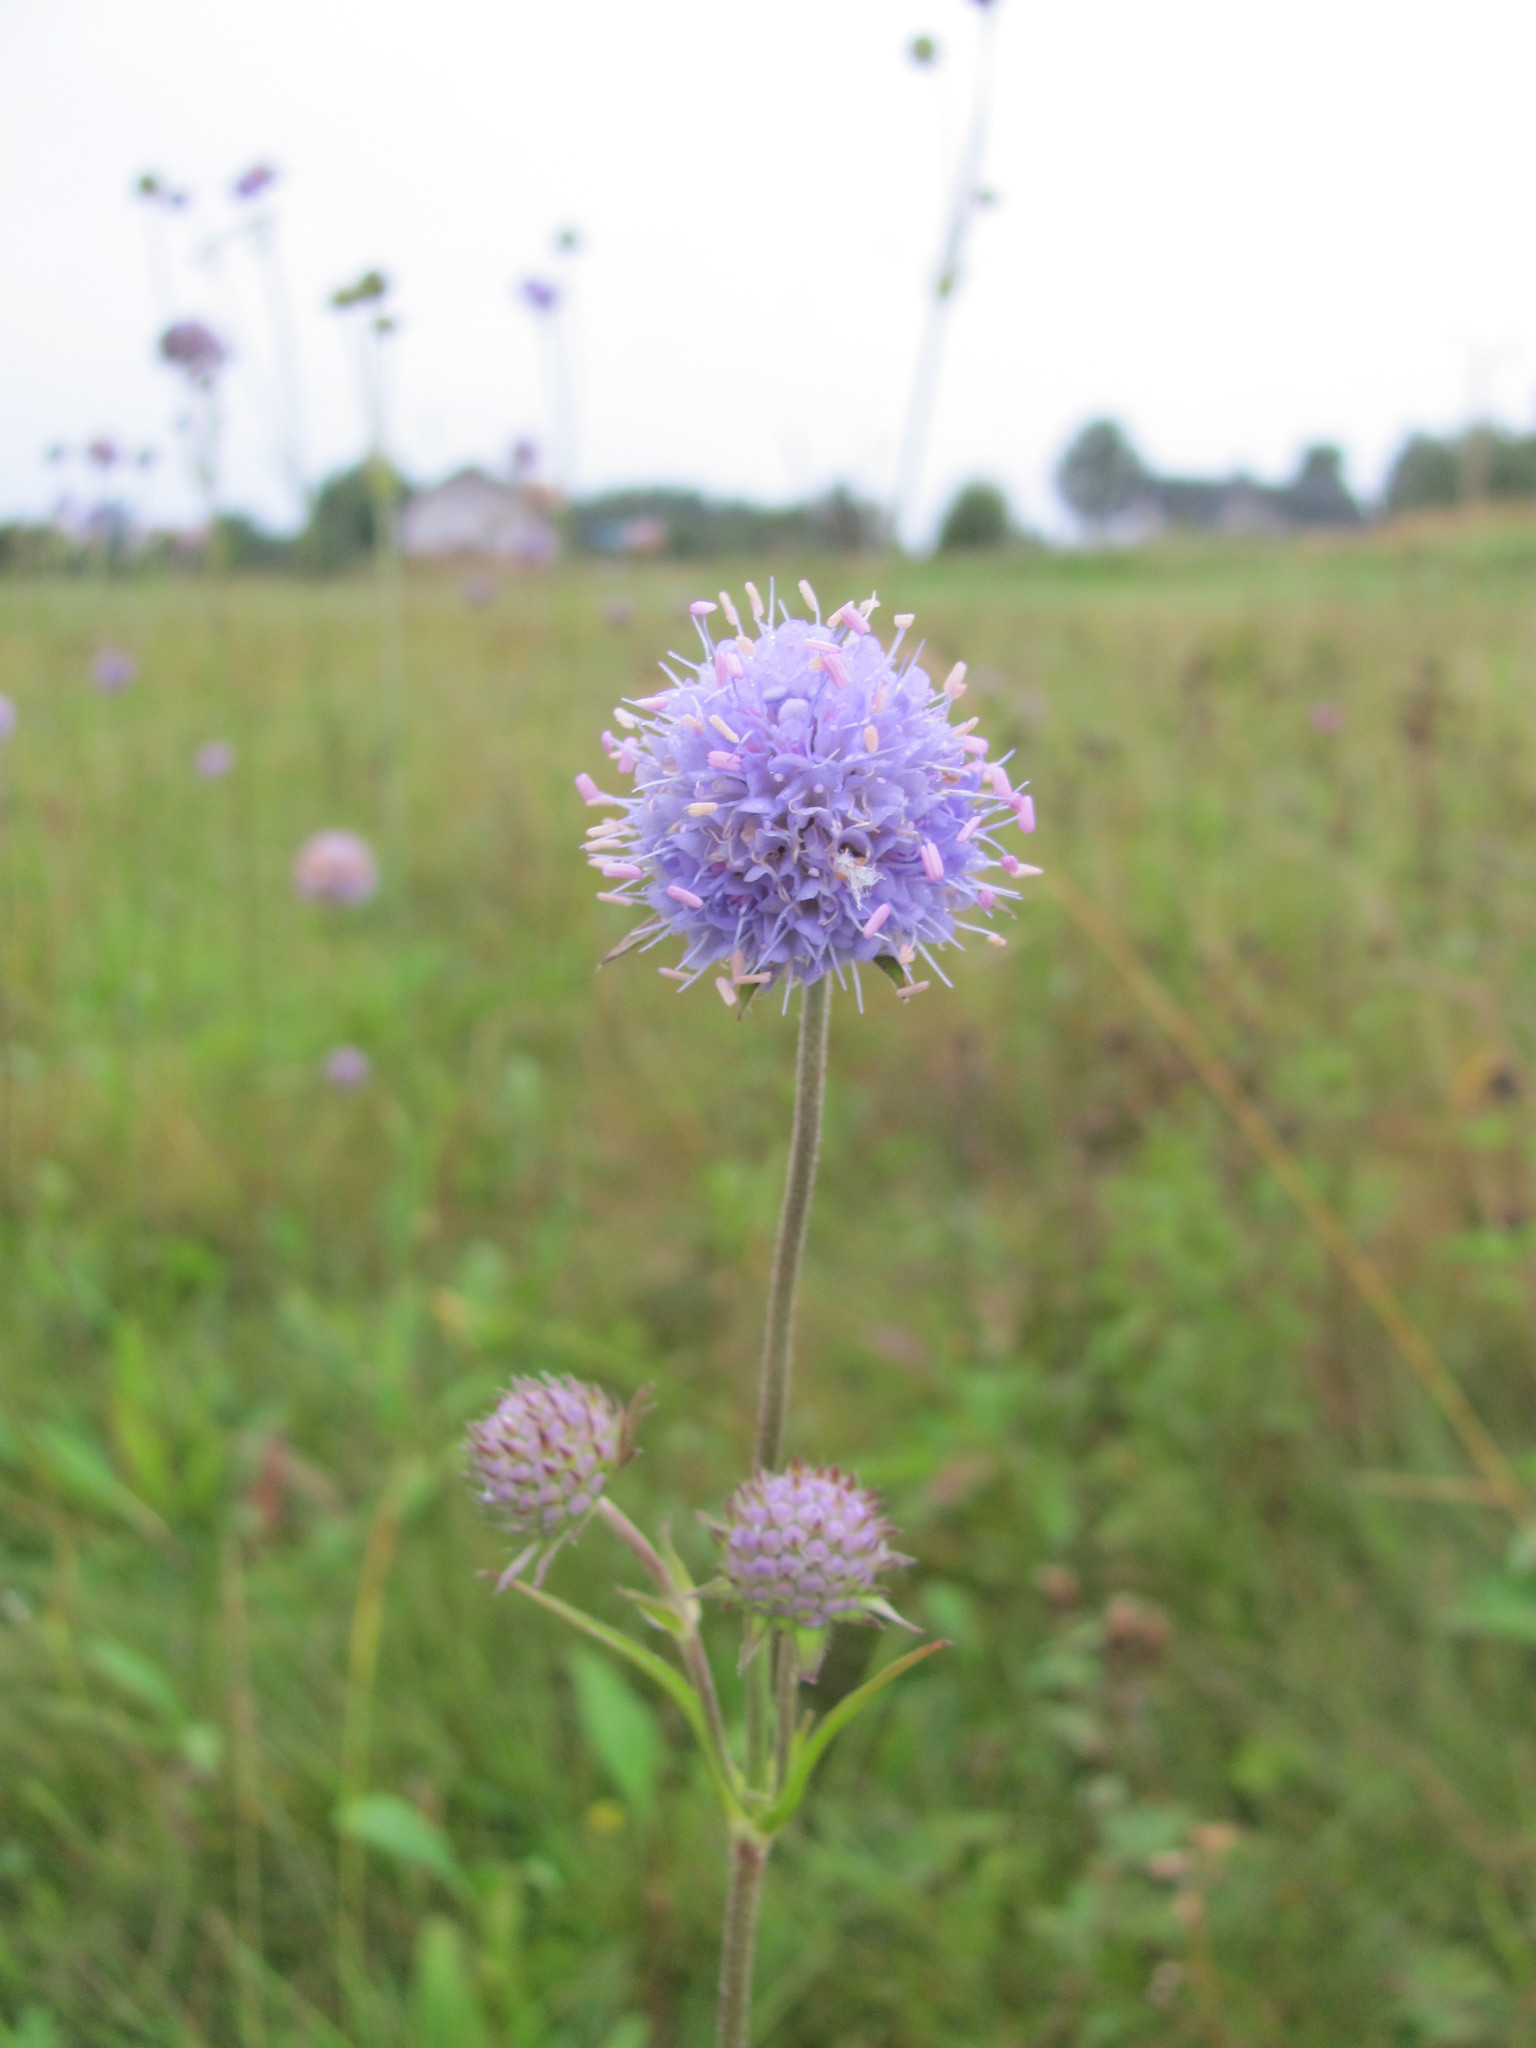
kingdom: Plantae
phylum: Tracheophyta
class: Magnoliopsida
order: Dipsacales
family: Caprifoliaceae
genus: Succisa
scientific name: Succisa pratensis
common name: Devil's-bit
